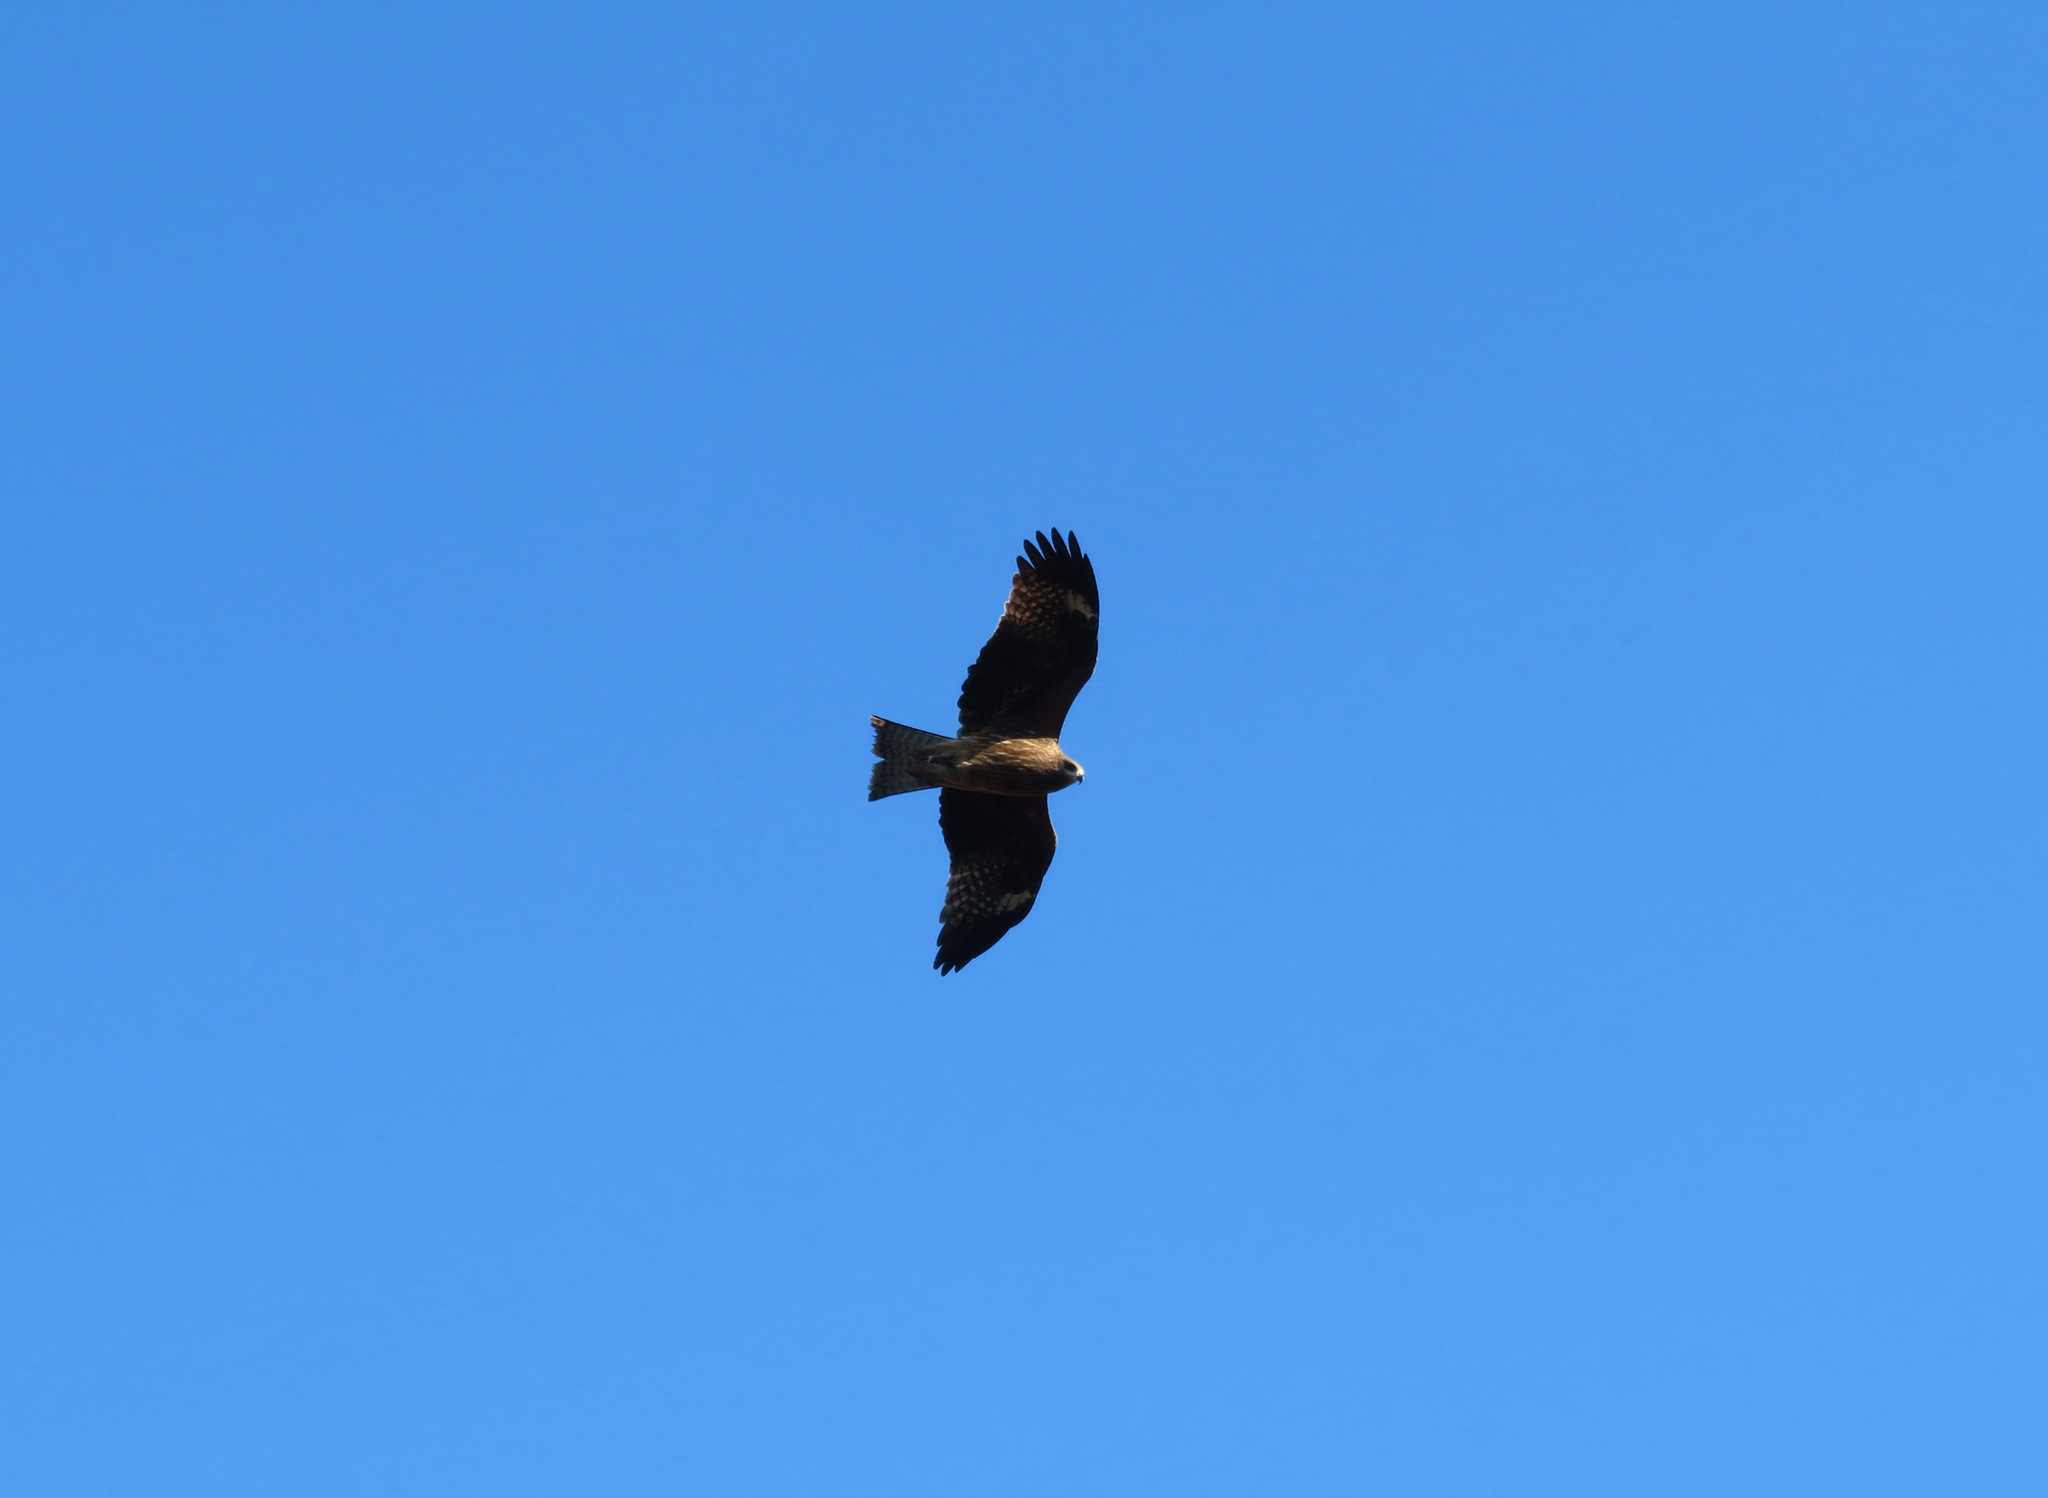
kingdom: Animalia
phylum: Chordata
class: Aves
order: Accipitriformes
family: Accipitridae
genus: Milvus
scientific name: Milvus migrans
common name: Black kite
